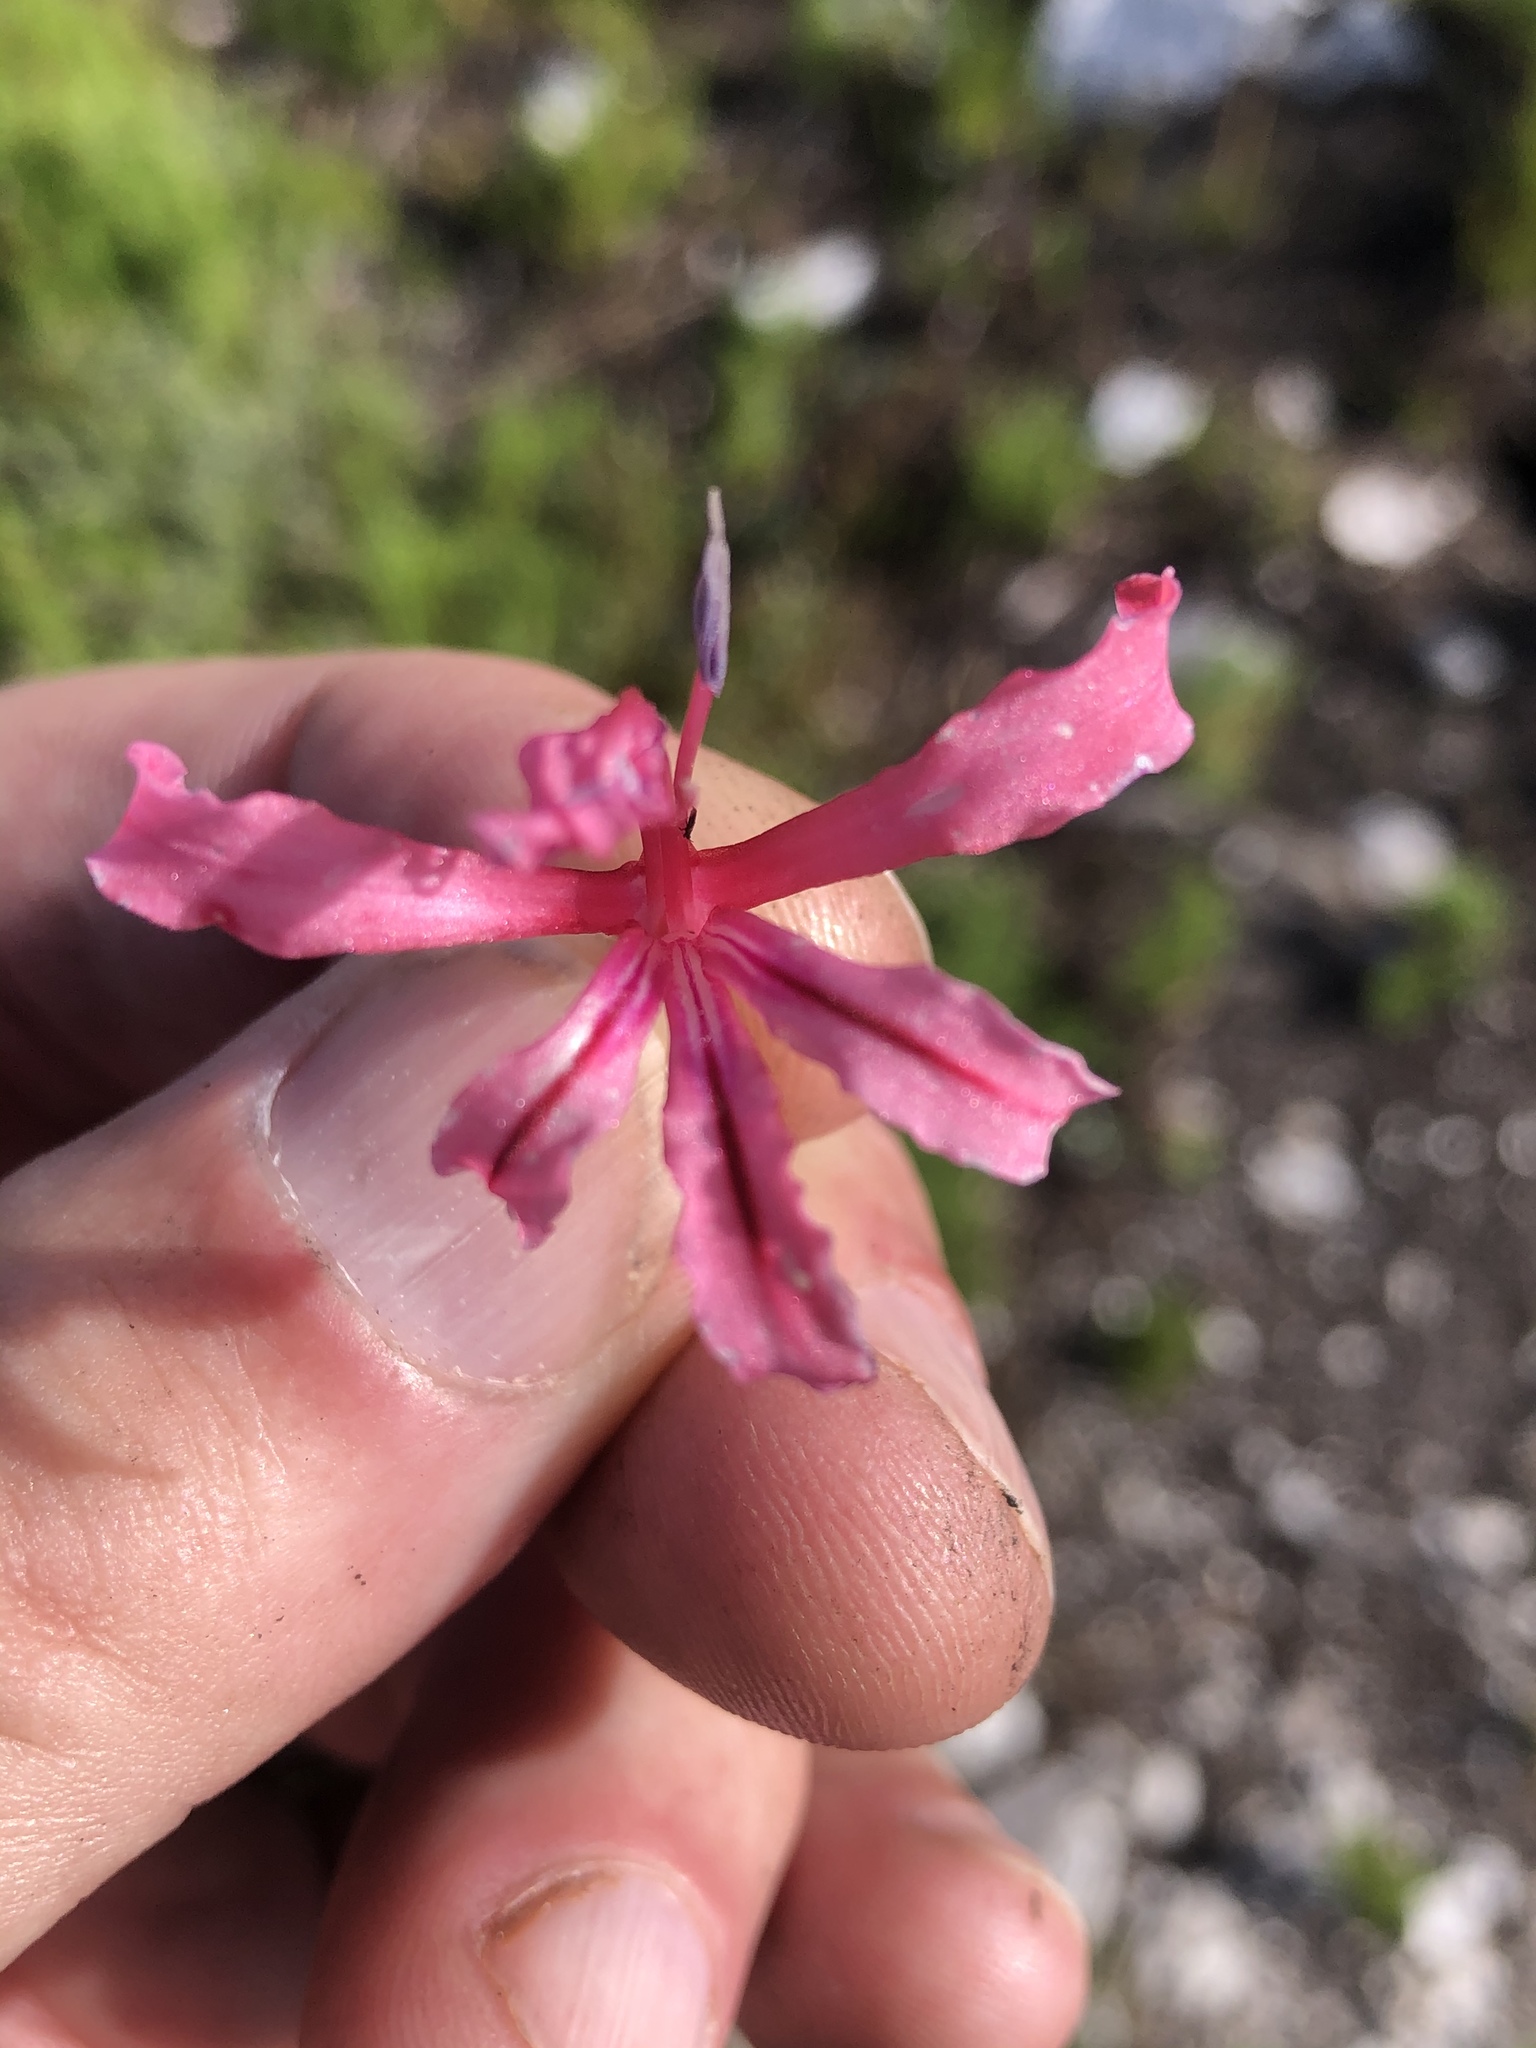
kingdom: Plantae
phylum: Tracheophyta
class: Liliopsida
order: Asparagales
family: Iridaceae
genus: Tritoniopsis
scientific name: Tritoniopsis ramosa
